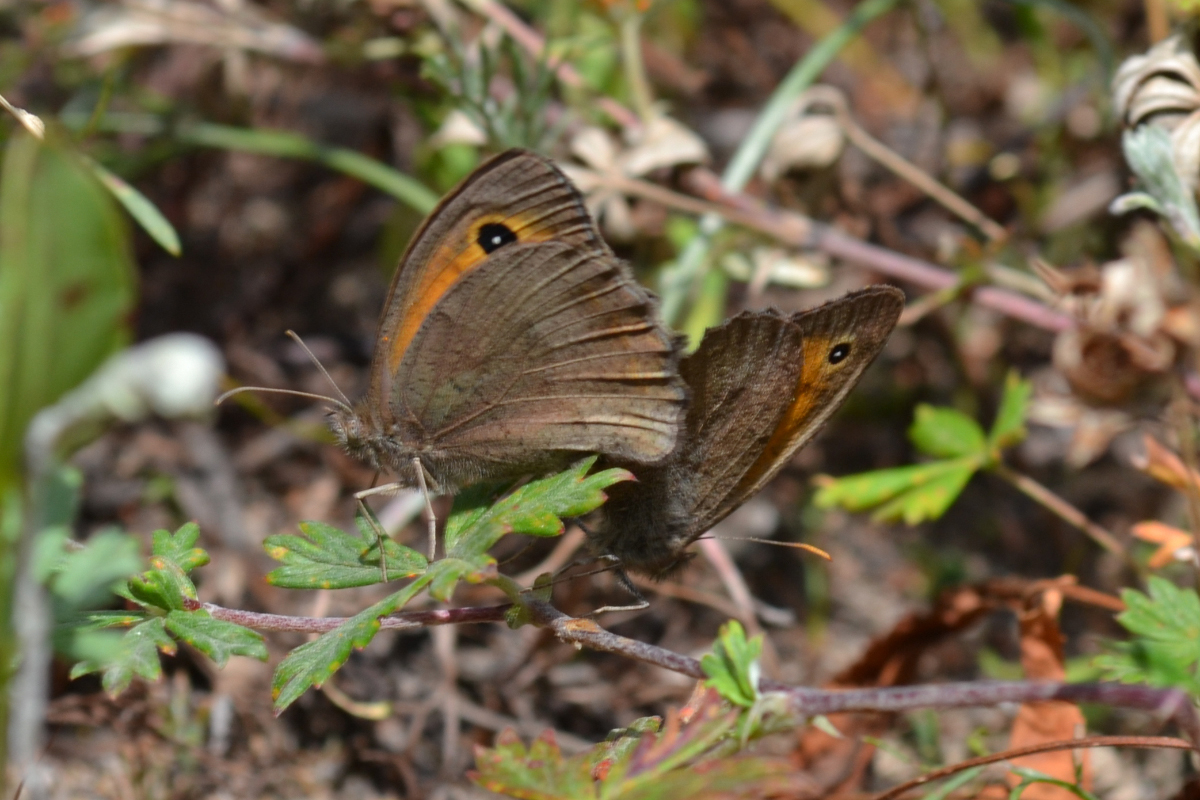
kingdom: Animalia
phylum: Arthropoda
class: Insecta
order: Lepidoptera
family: Nymphalidae
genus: Hyponephele
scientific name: Hyponephele lycaon
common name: Dusky meadow brown
